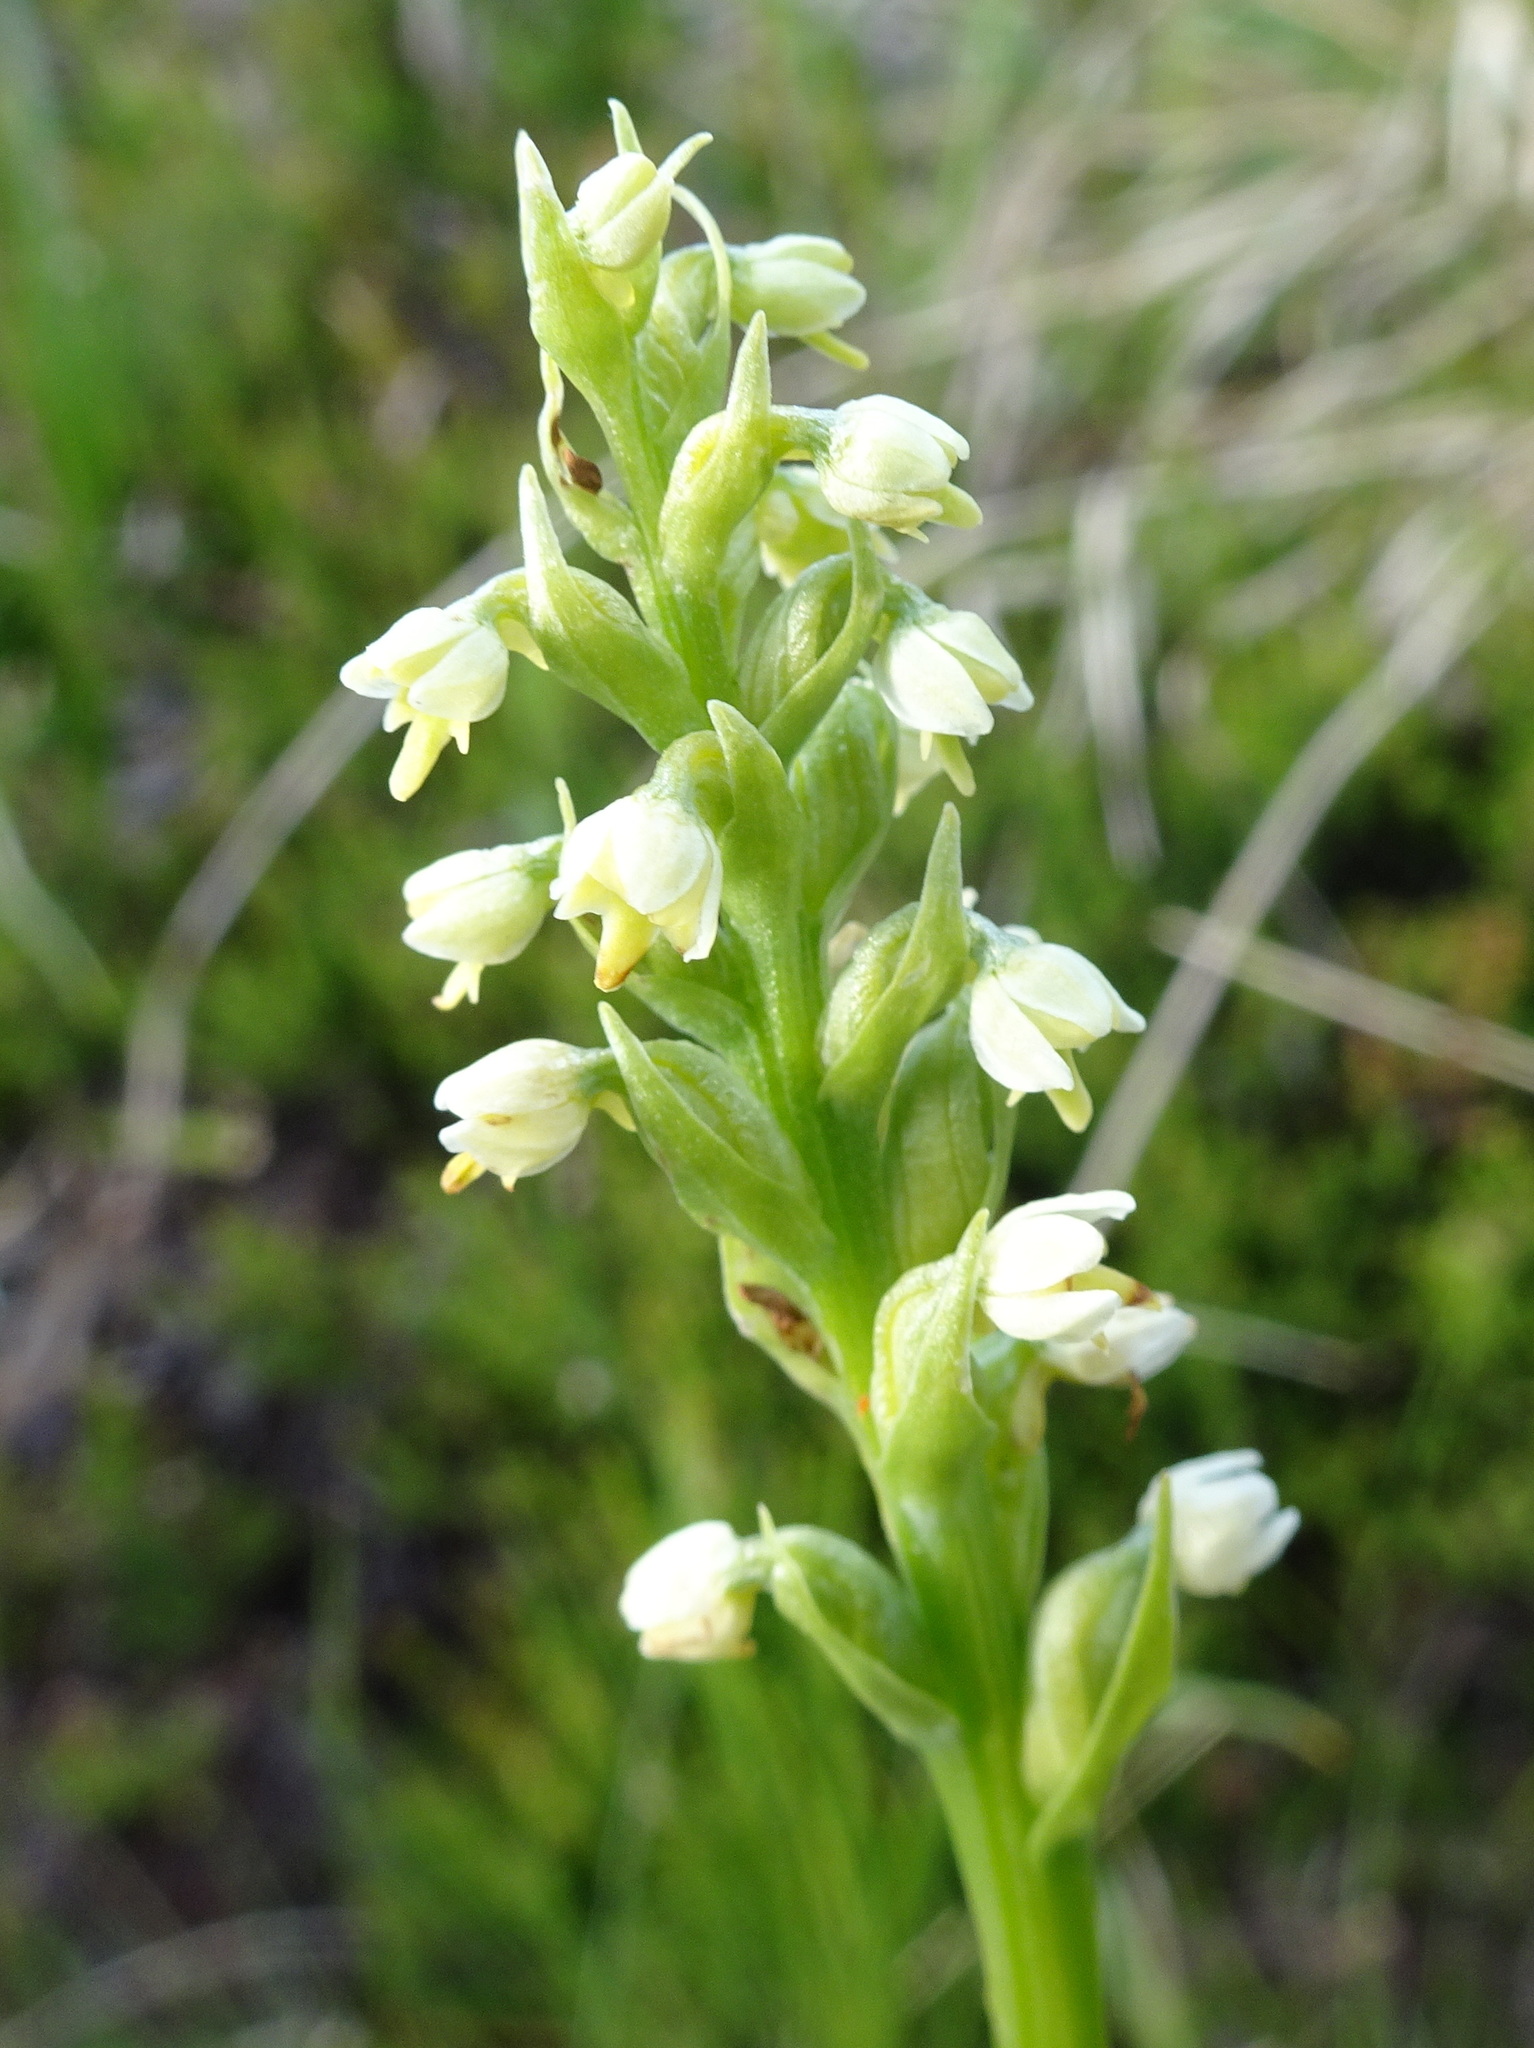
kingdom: Plantae
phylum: Tracheophyta
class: Liliopsida
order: Asparagales
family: Orchidaceae
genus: Pseudorchis
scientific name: Pseudorchis albida
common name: Small-white orchid
